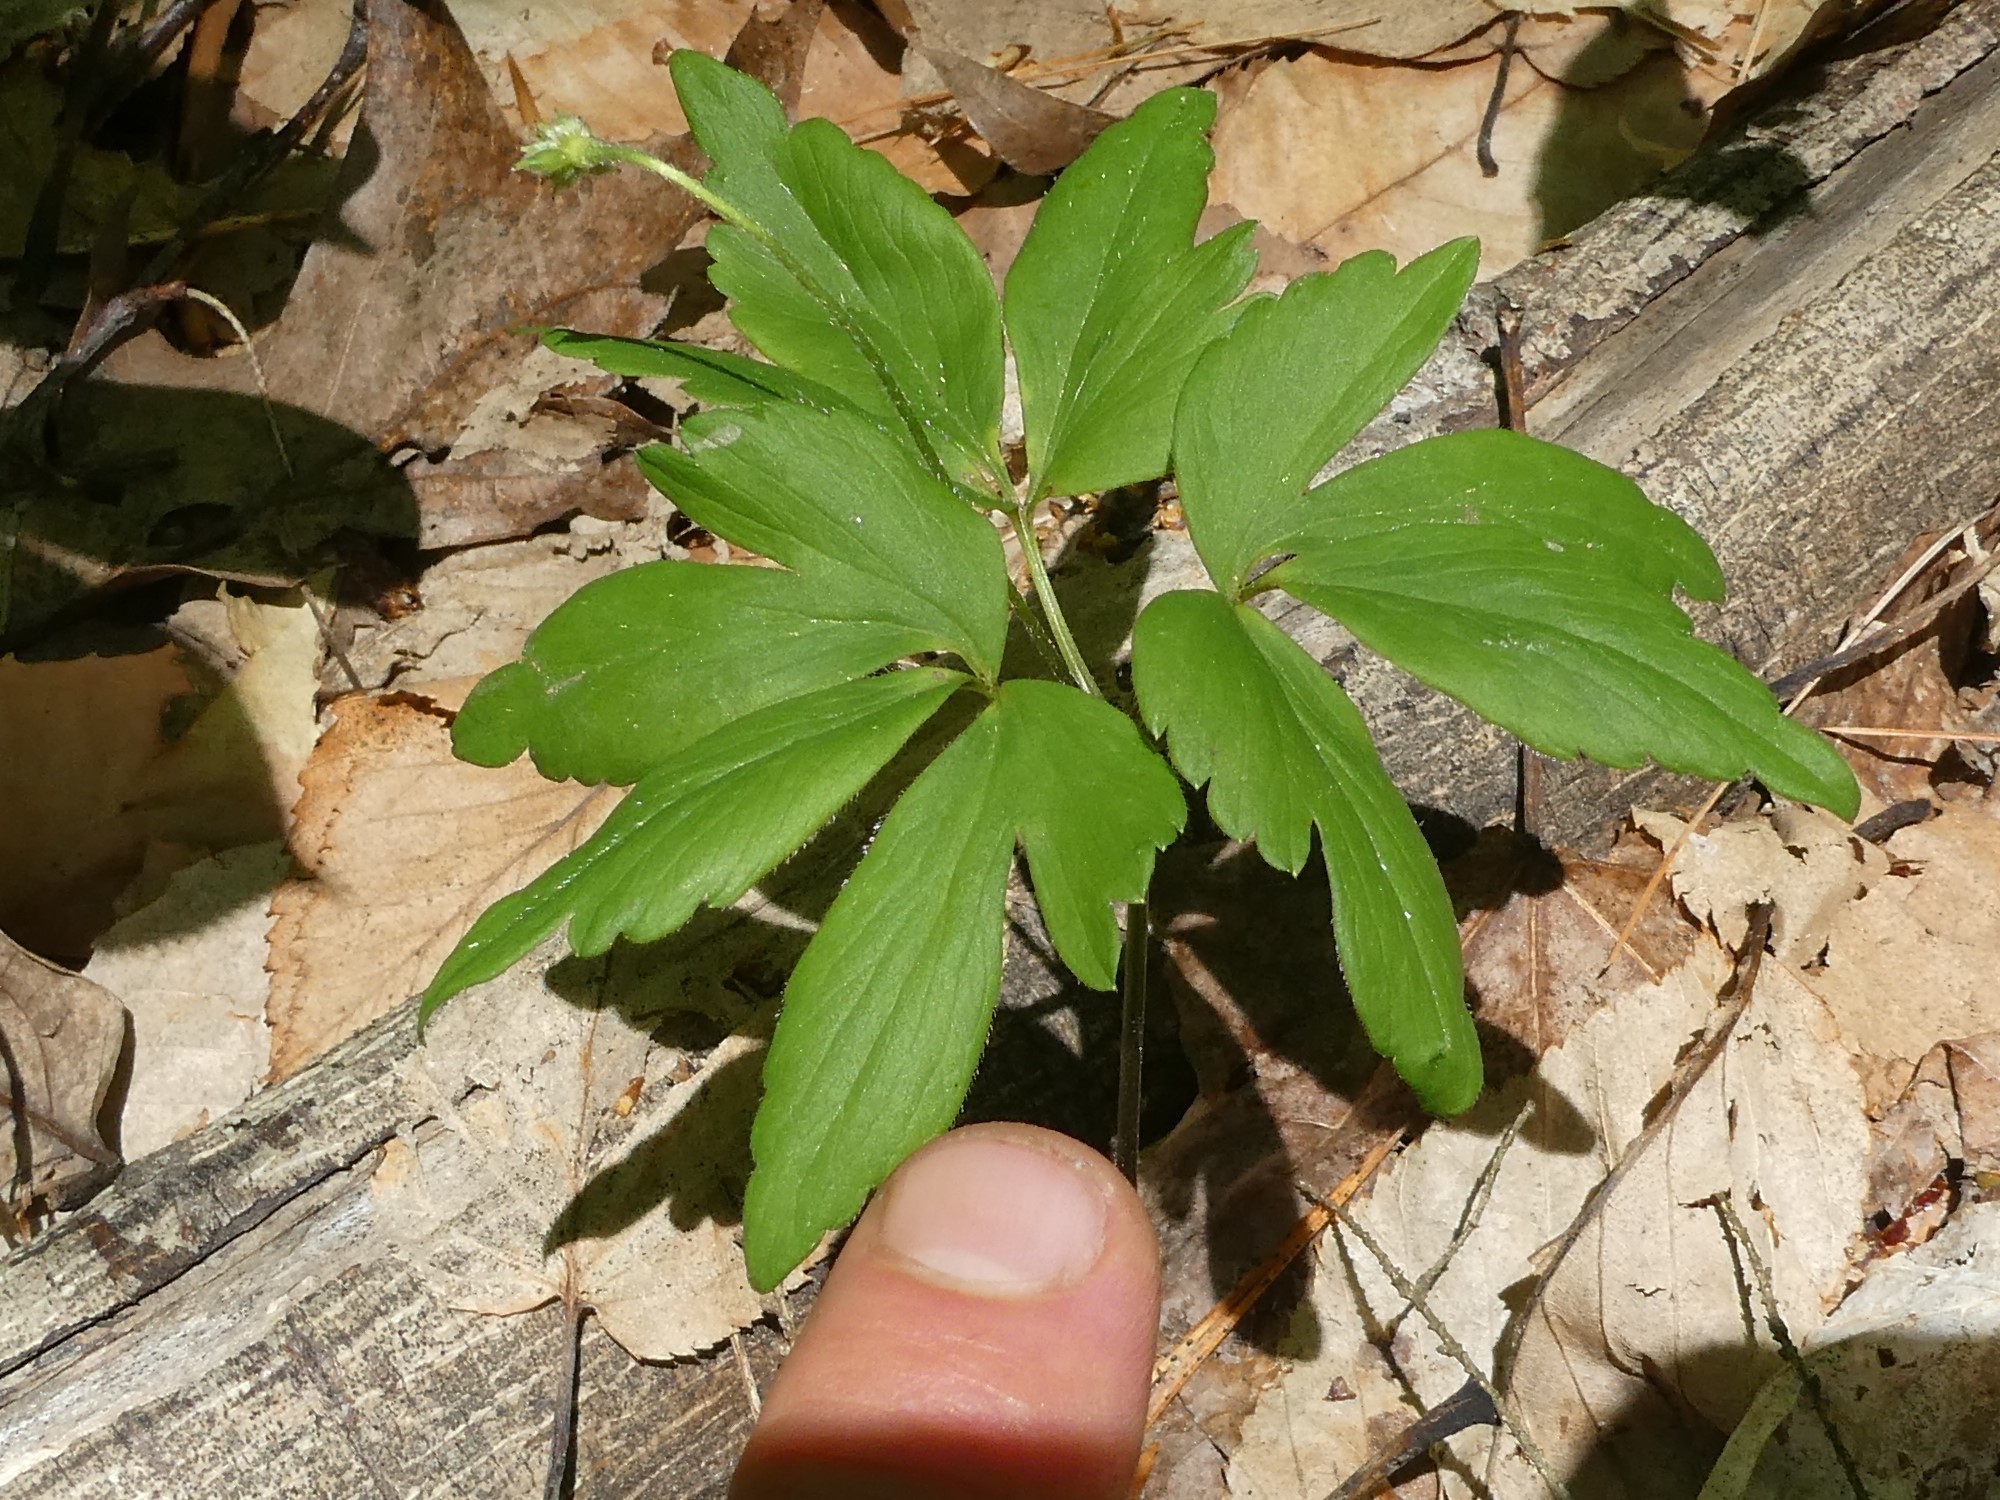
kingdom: Plantae
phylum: Tracheophyta
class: Magnoliopsida
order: Ranunculales
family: Ranunculaceae
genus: Anemone
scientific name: Anemone quinquefolia
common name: Wood anemone
